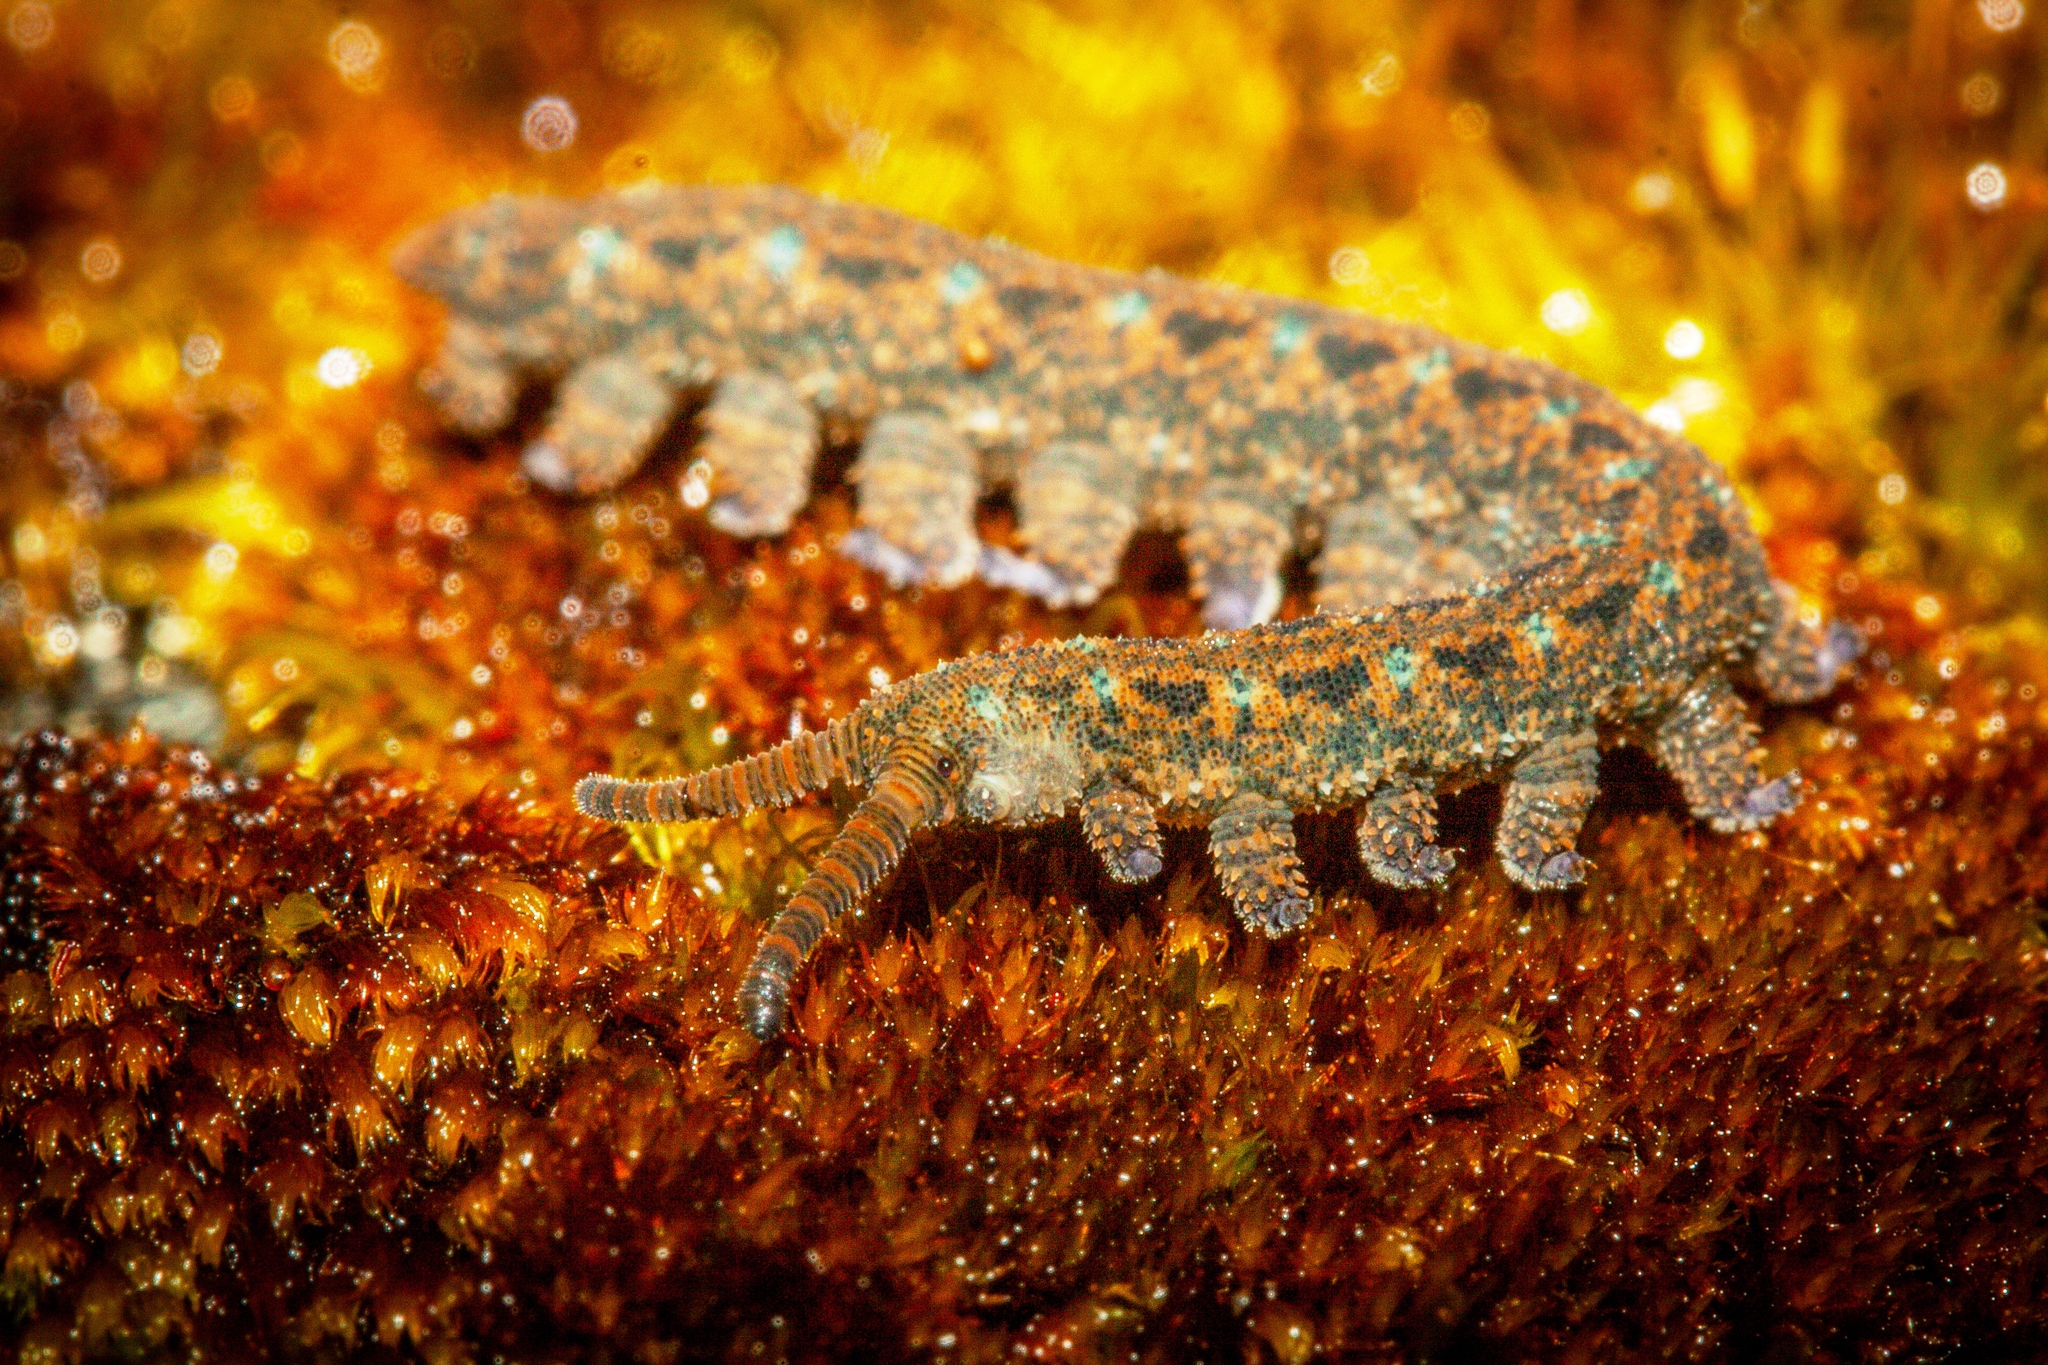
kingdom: Animalia
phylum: Onychophora
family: Peripatopsidae
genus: Ooperipatellus
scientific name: Ooperipatellus viridimaculatus
